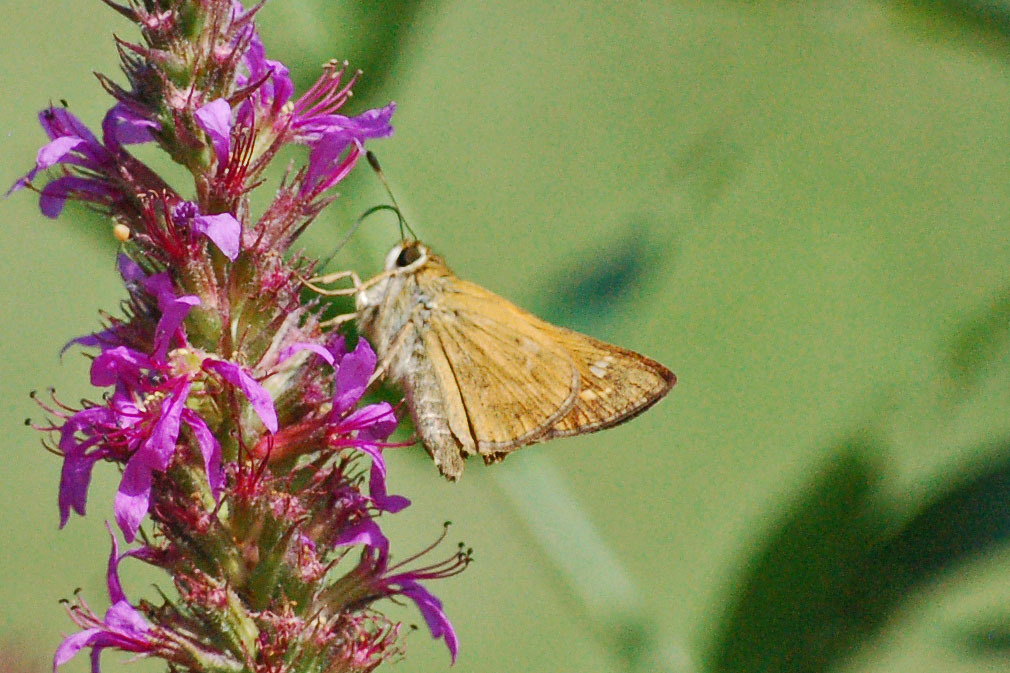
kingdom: Animalia
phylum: Arthropoda
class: Insecta
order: Lepidoptera
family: Hesperiidae
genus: Atalopedes
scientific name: Atalopedes
